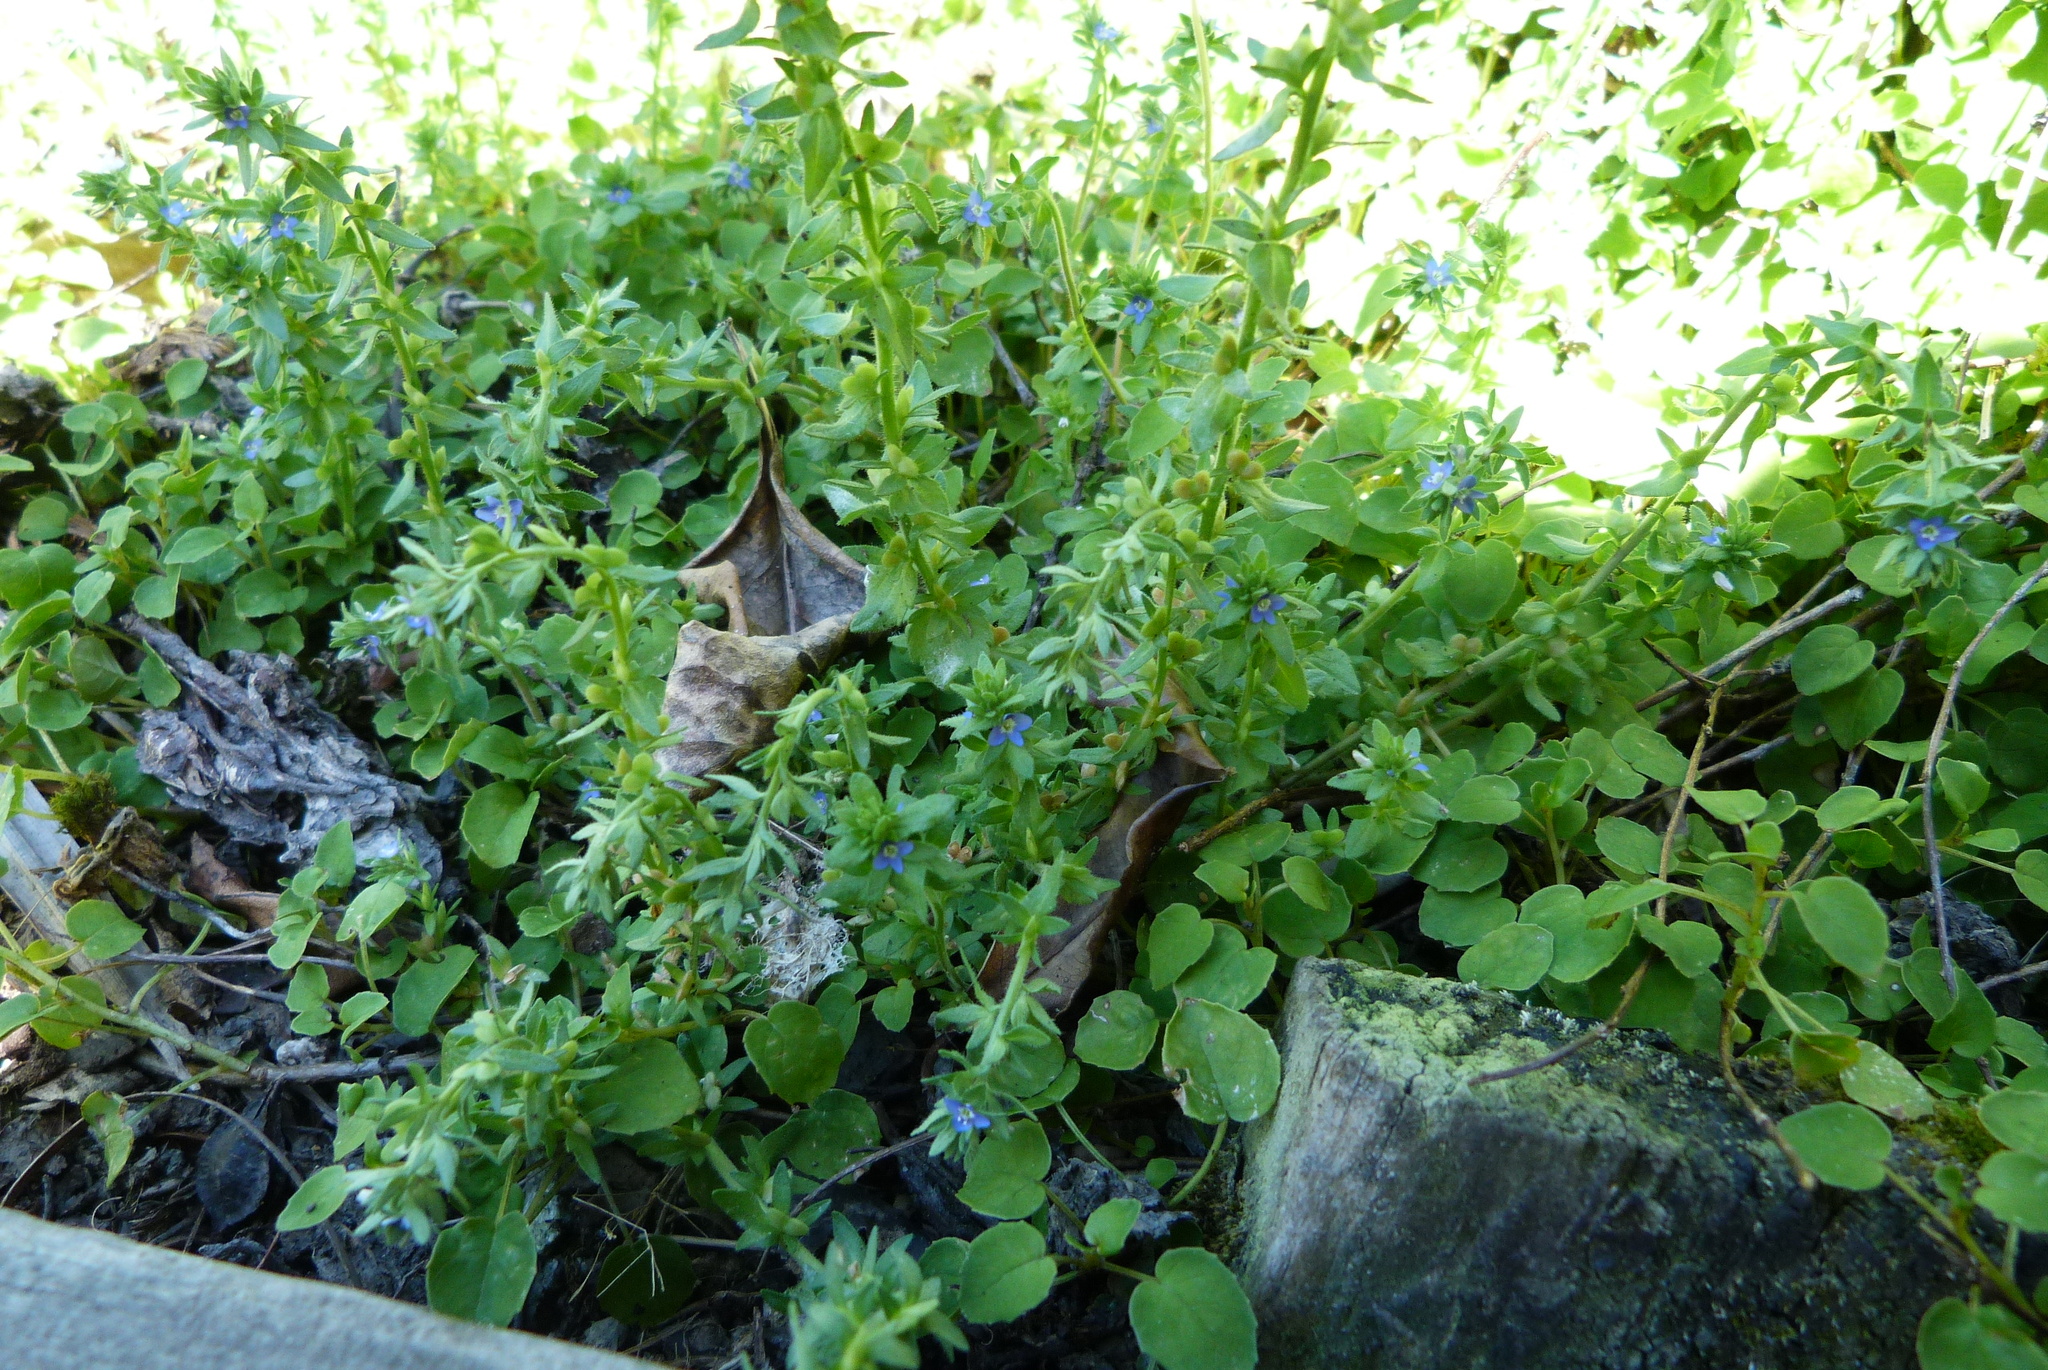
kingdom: Plantae
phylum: Tracheophyta
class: Magnoliopsida
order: Lamiales
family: Plantaginaceae
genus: Veronica
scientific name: Veronica arvensis
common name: Corn speedwell
